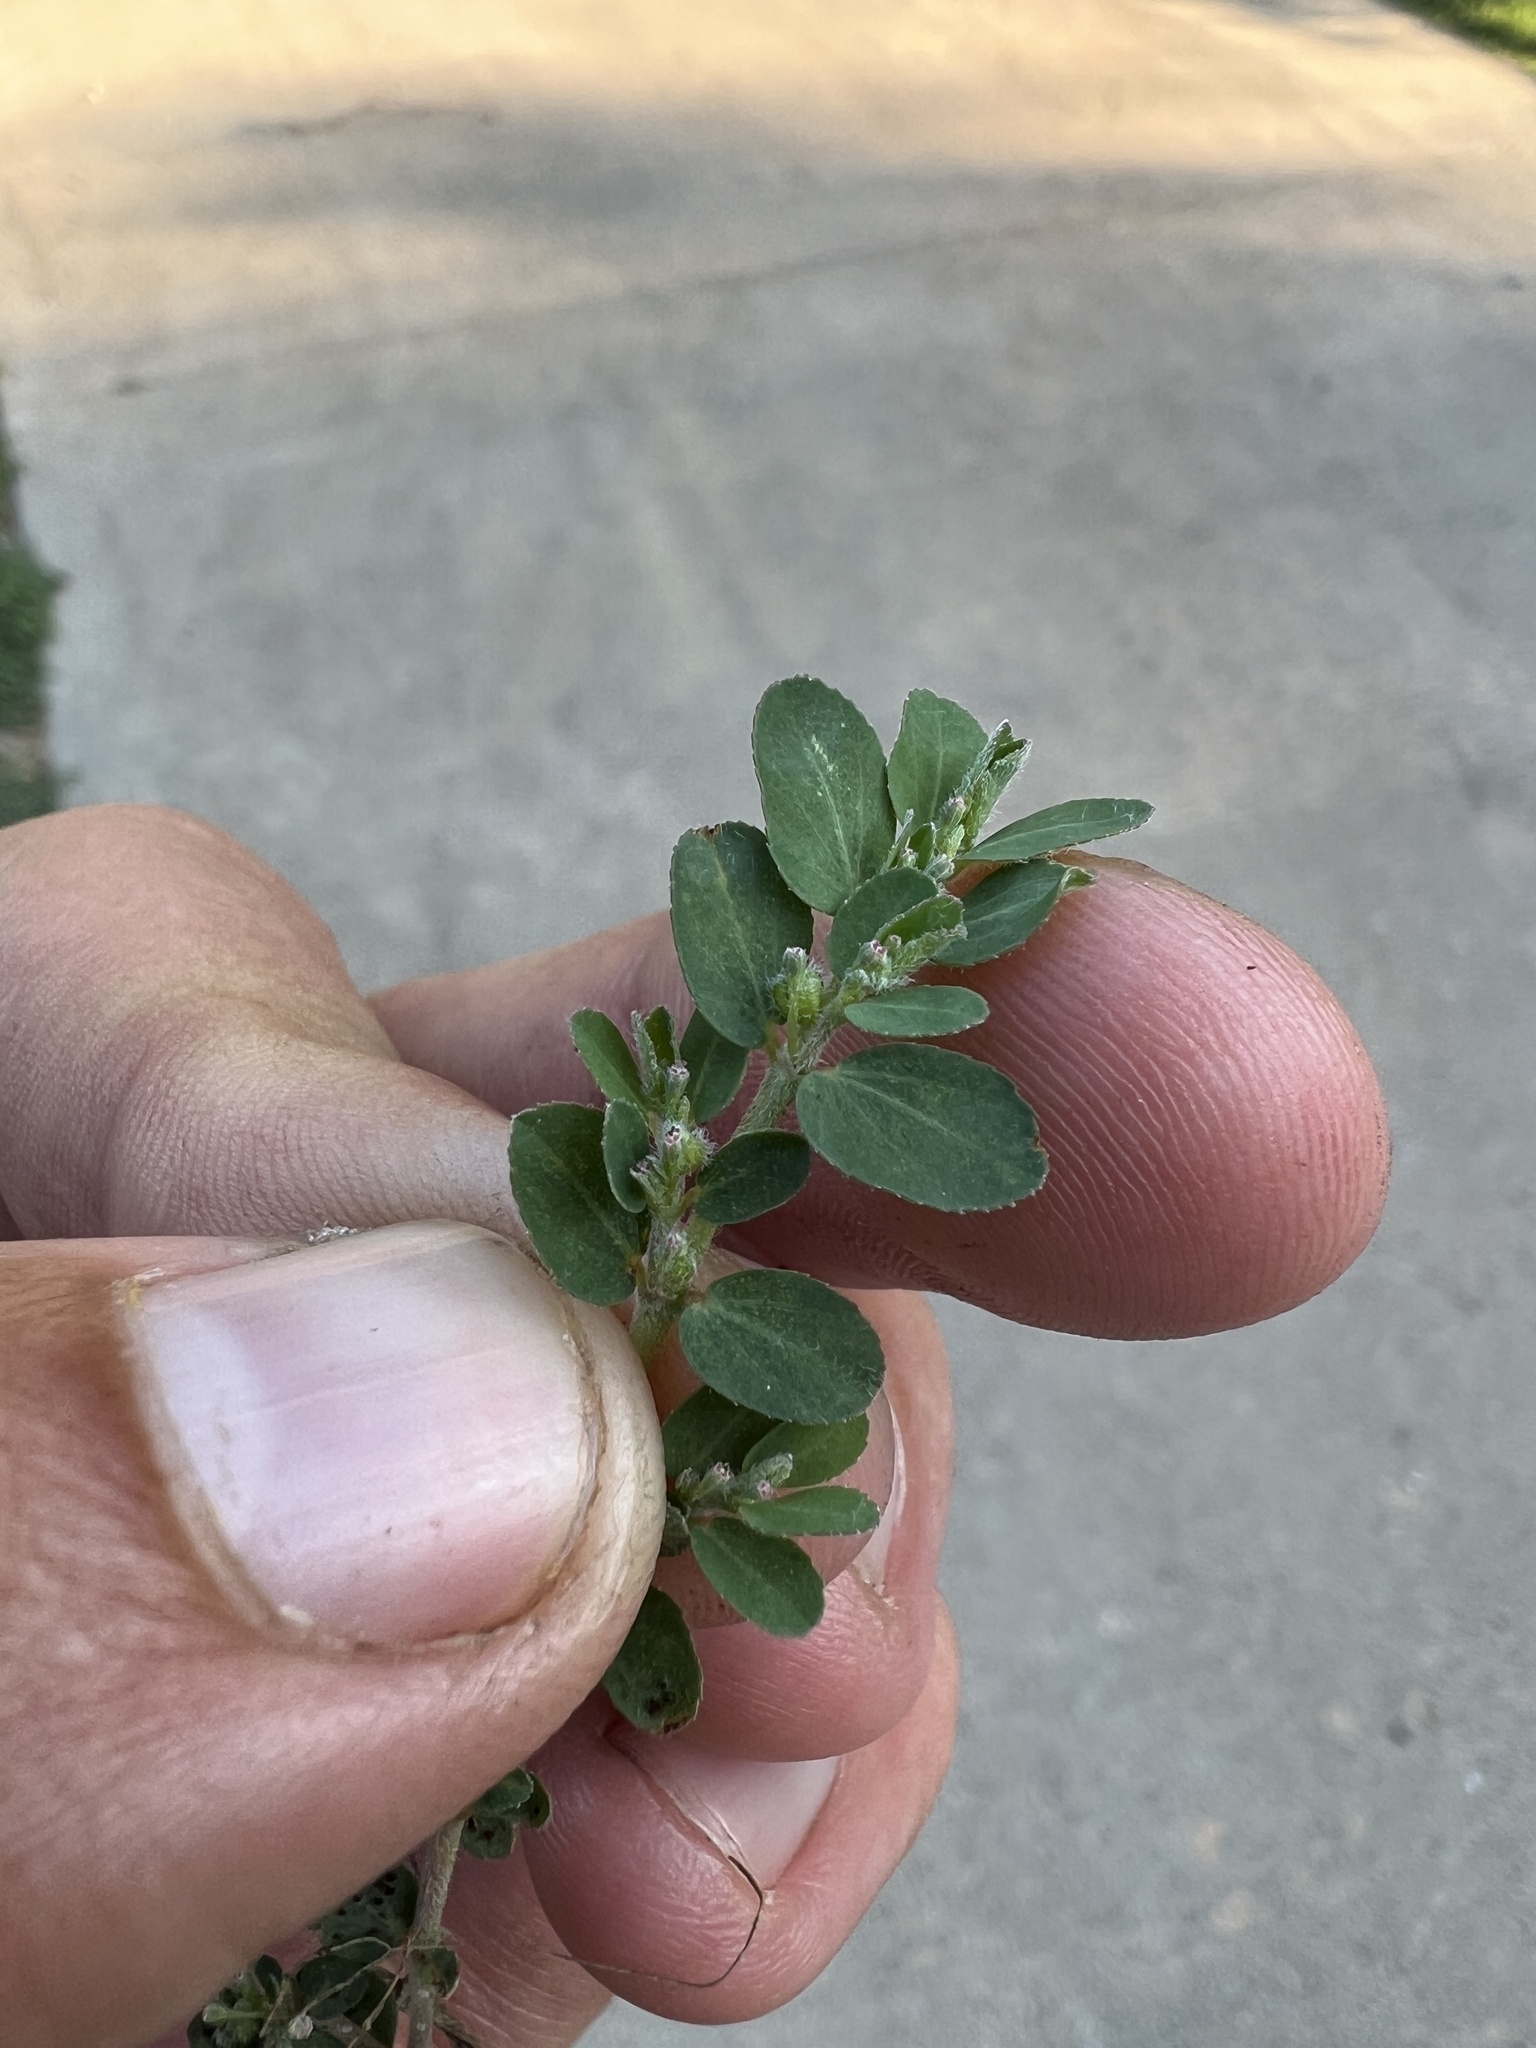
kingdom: Plantae
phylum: Tracheophyta
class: Magnoliopsida
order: Malpighiales
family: Euphorbiaceae
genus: Euphorbia
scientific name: Euphorbia prostrata
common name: Prostrate sandmat
